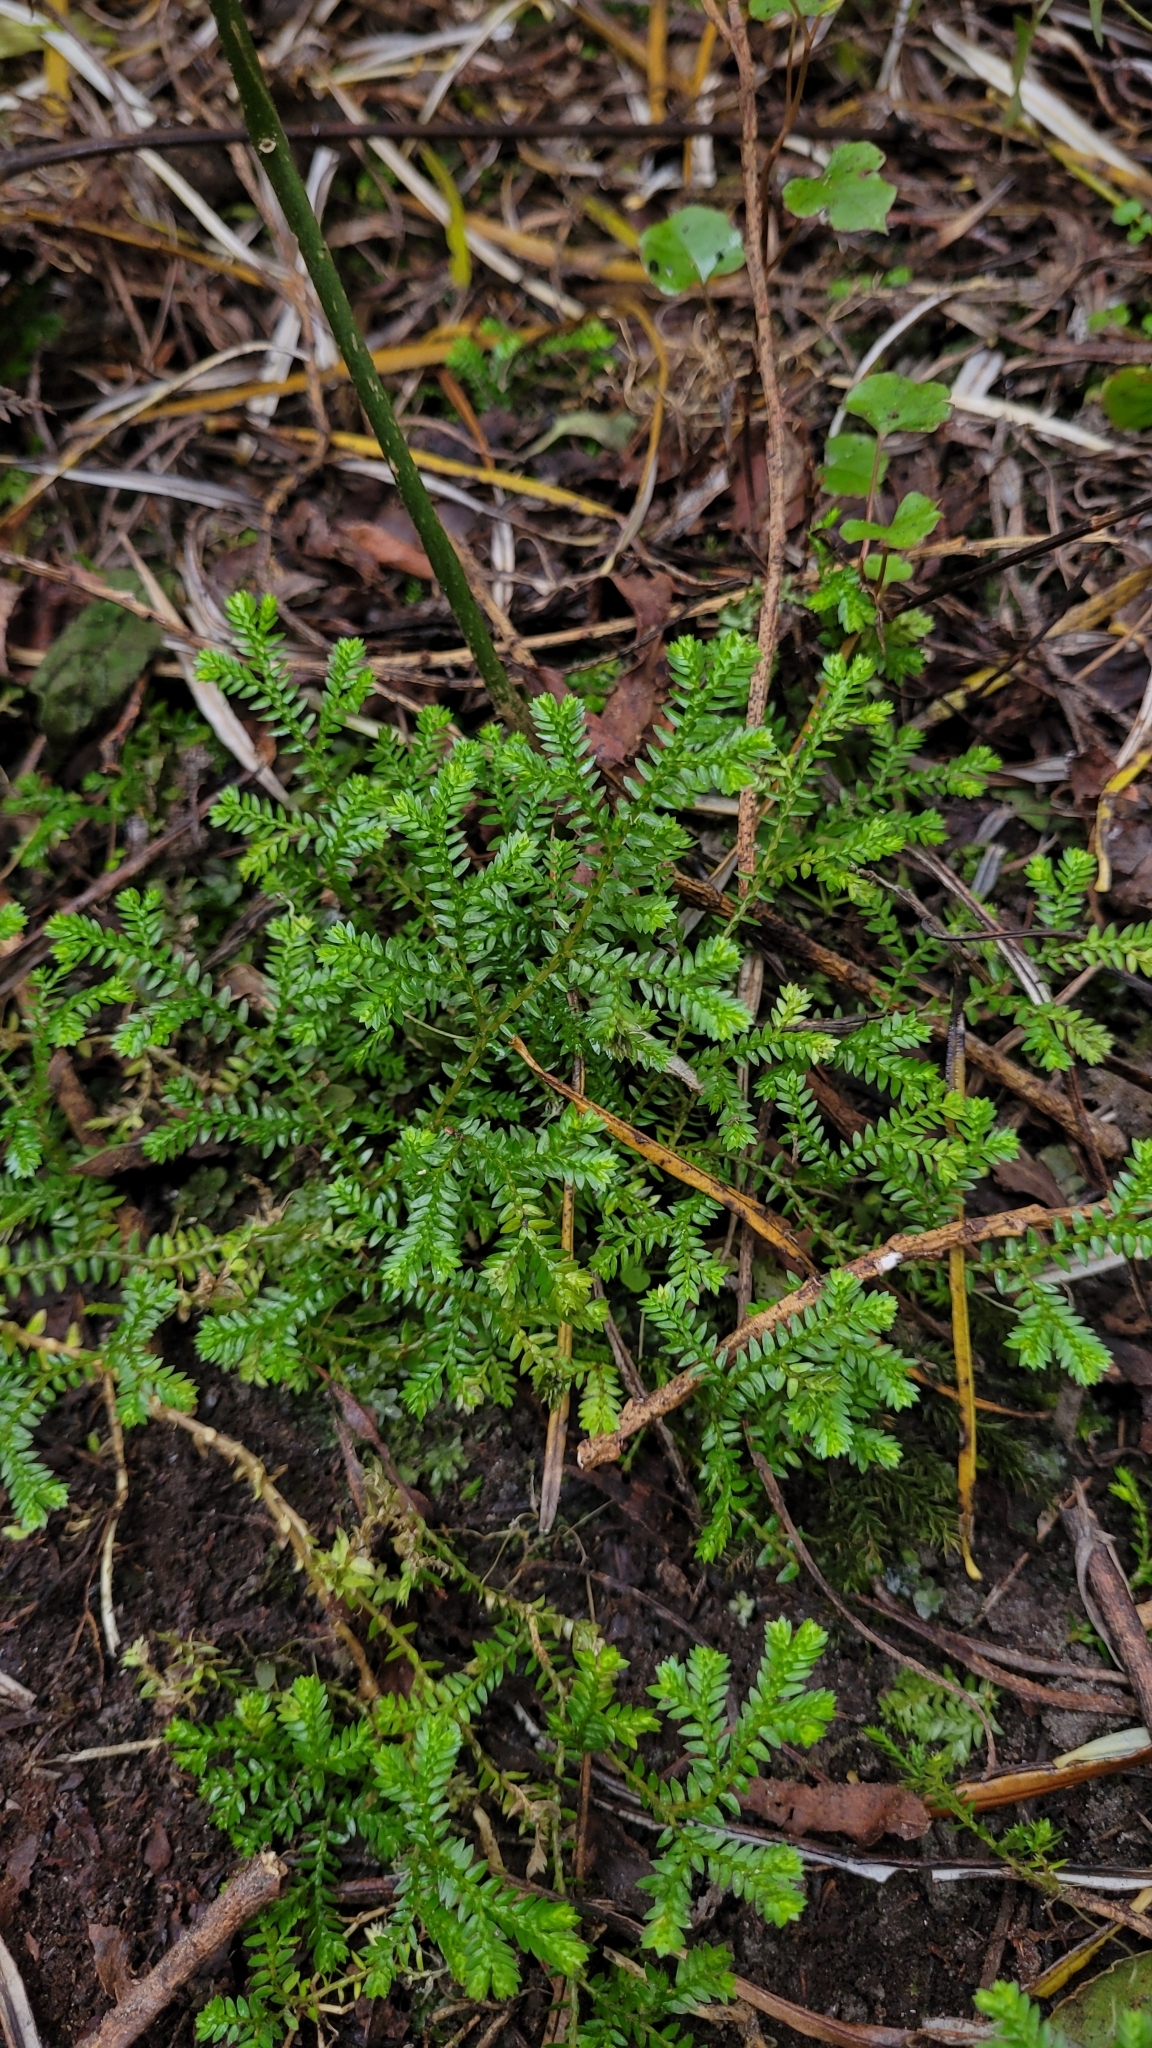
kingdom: Plantae
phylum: Tracheophyta
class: Lycopodiopsida
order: Selaginellales
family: Selaginellaceae
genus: Selaginella
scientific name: Selaginella kraussiana
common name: Krauss' spikemoss
